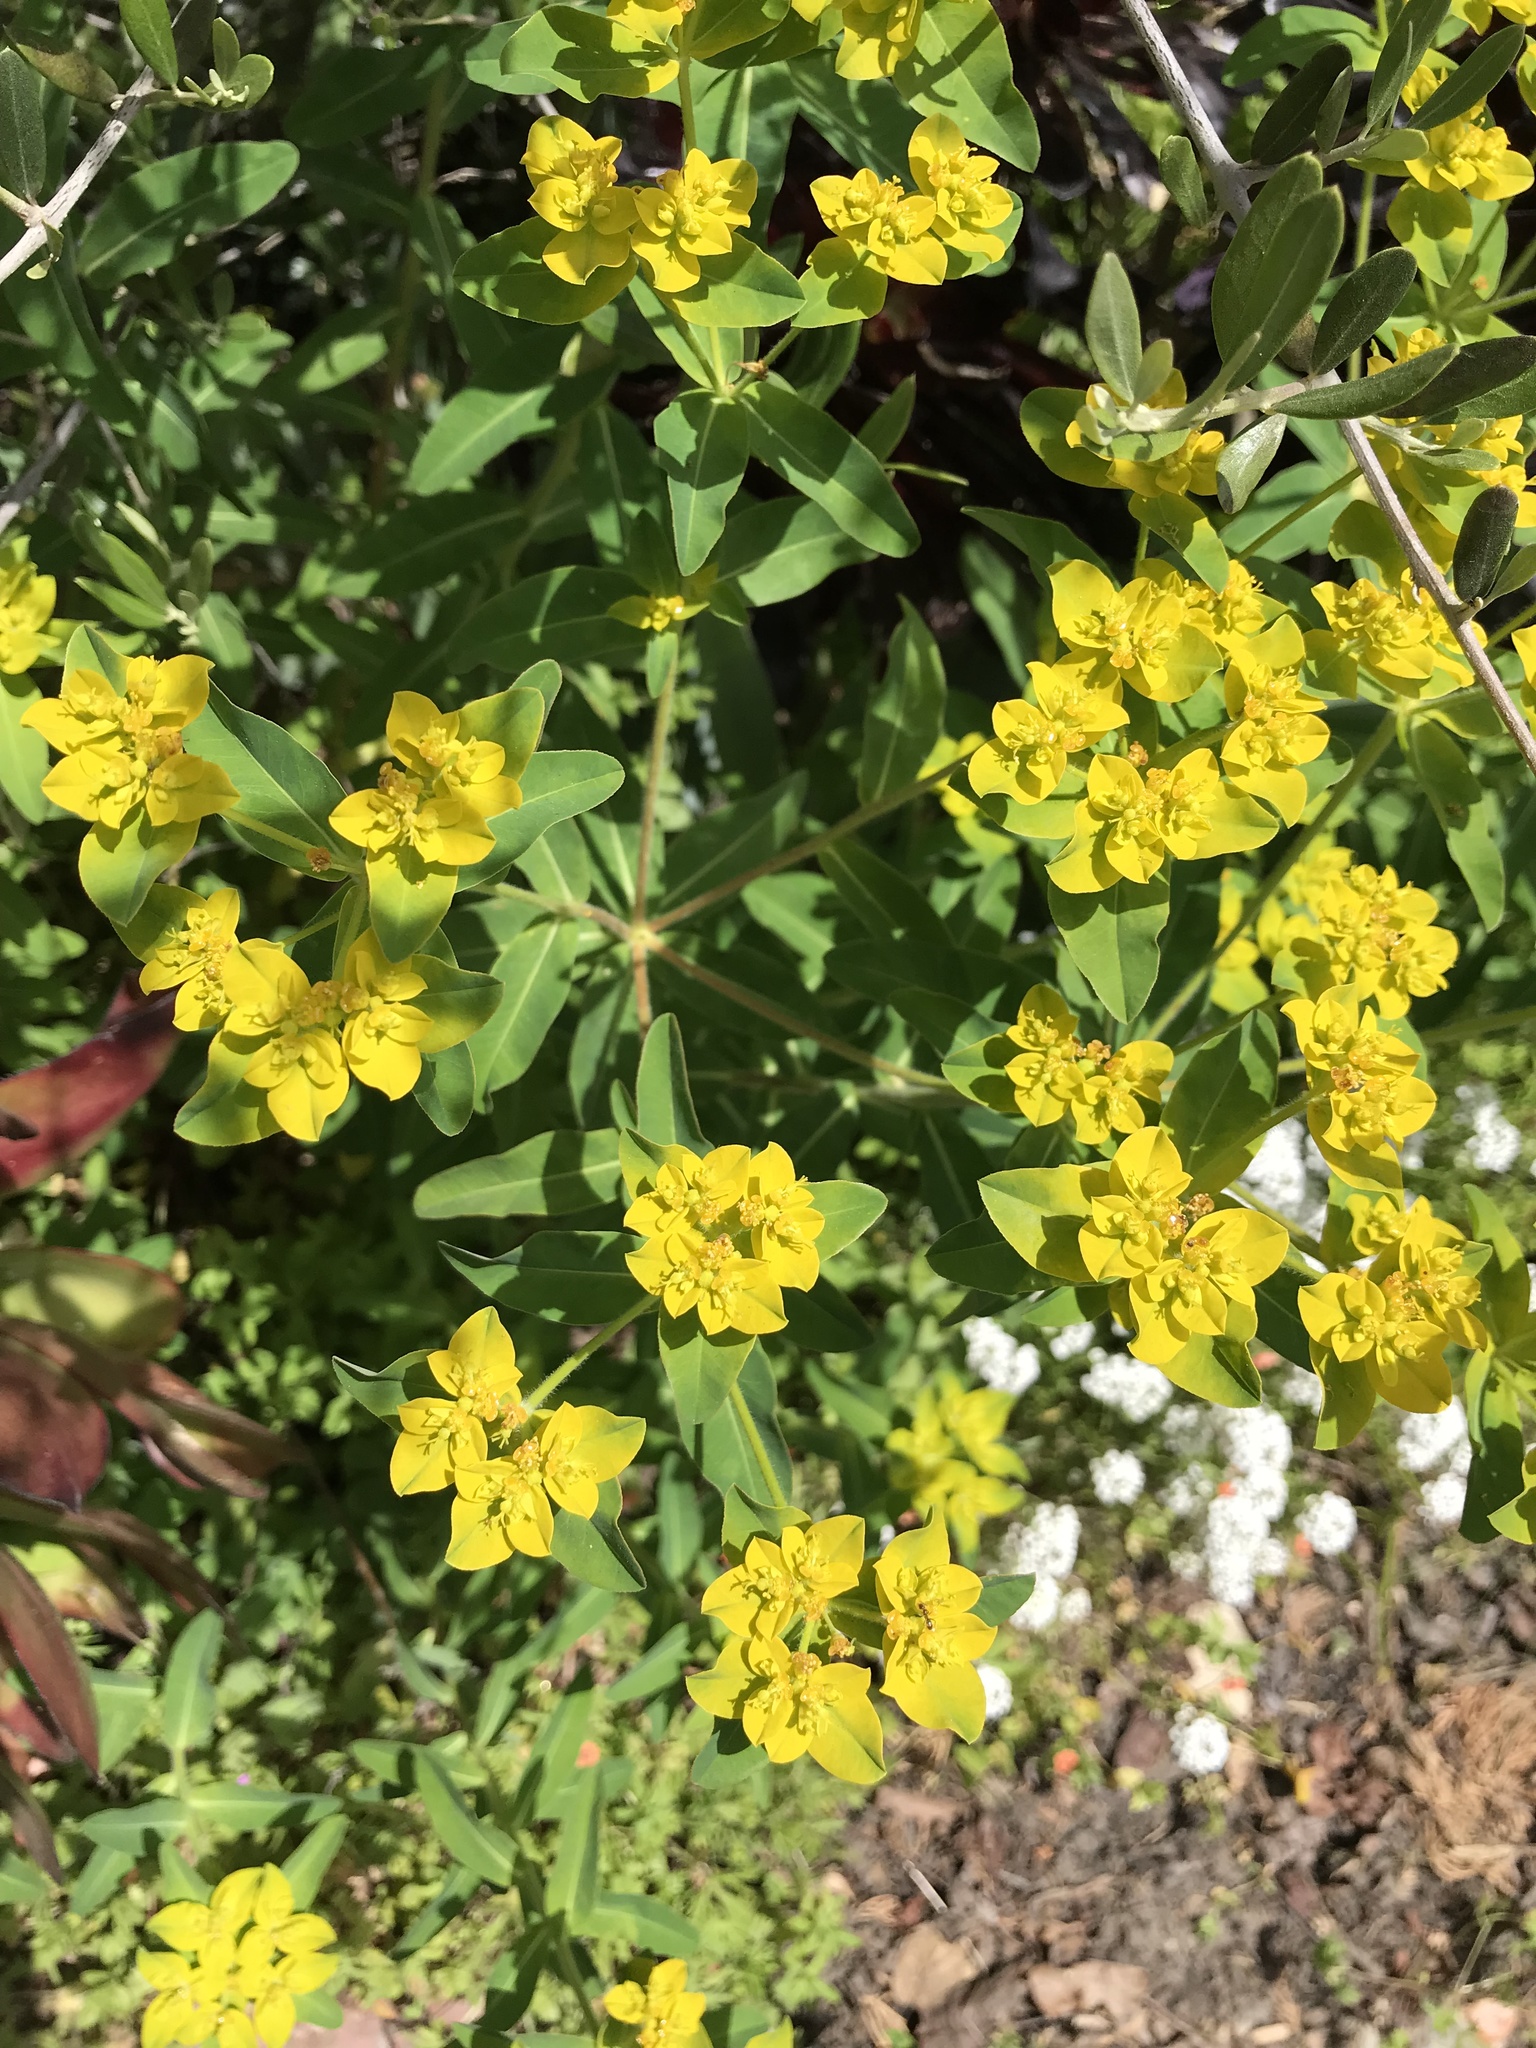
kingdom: Plantae
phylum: Tracheophyta
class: Magnoliopsida
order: Malpighiales
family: Euphorbiaceae
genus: Euphorbia
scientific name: Euphorbia oblongata
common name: Balkan spurge
